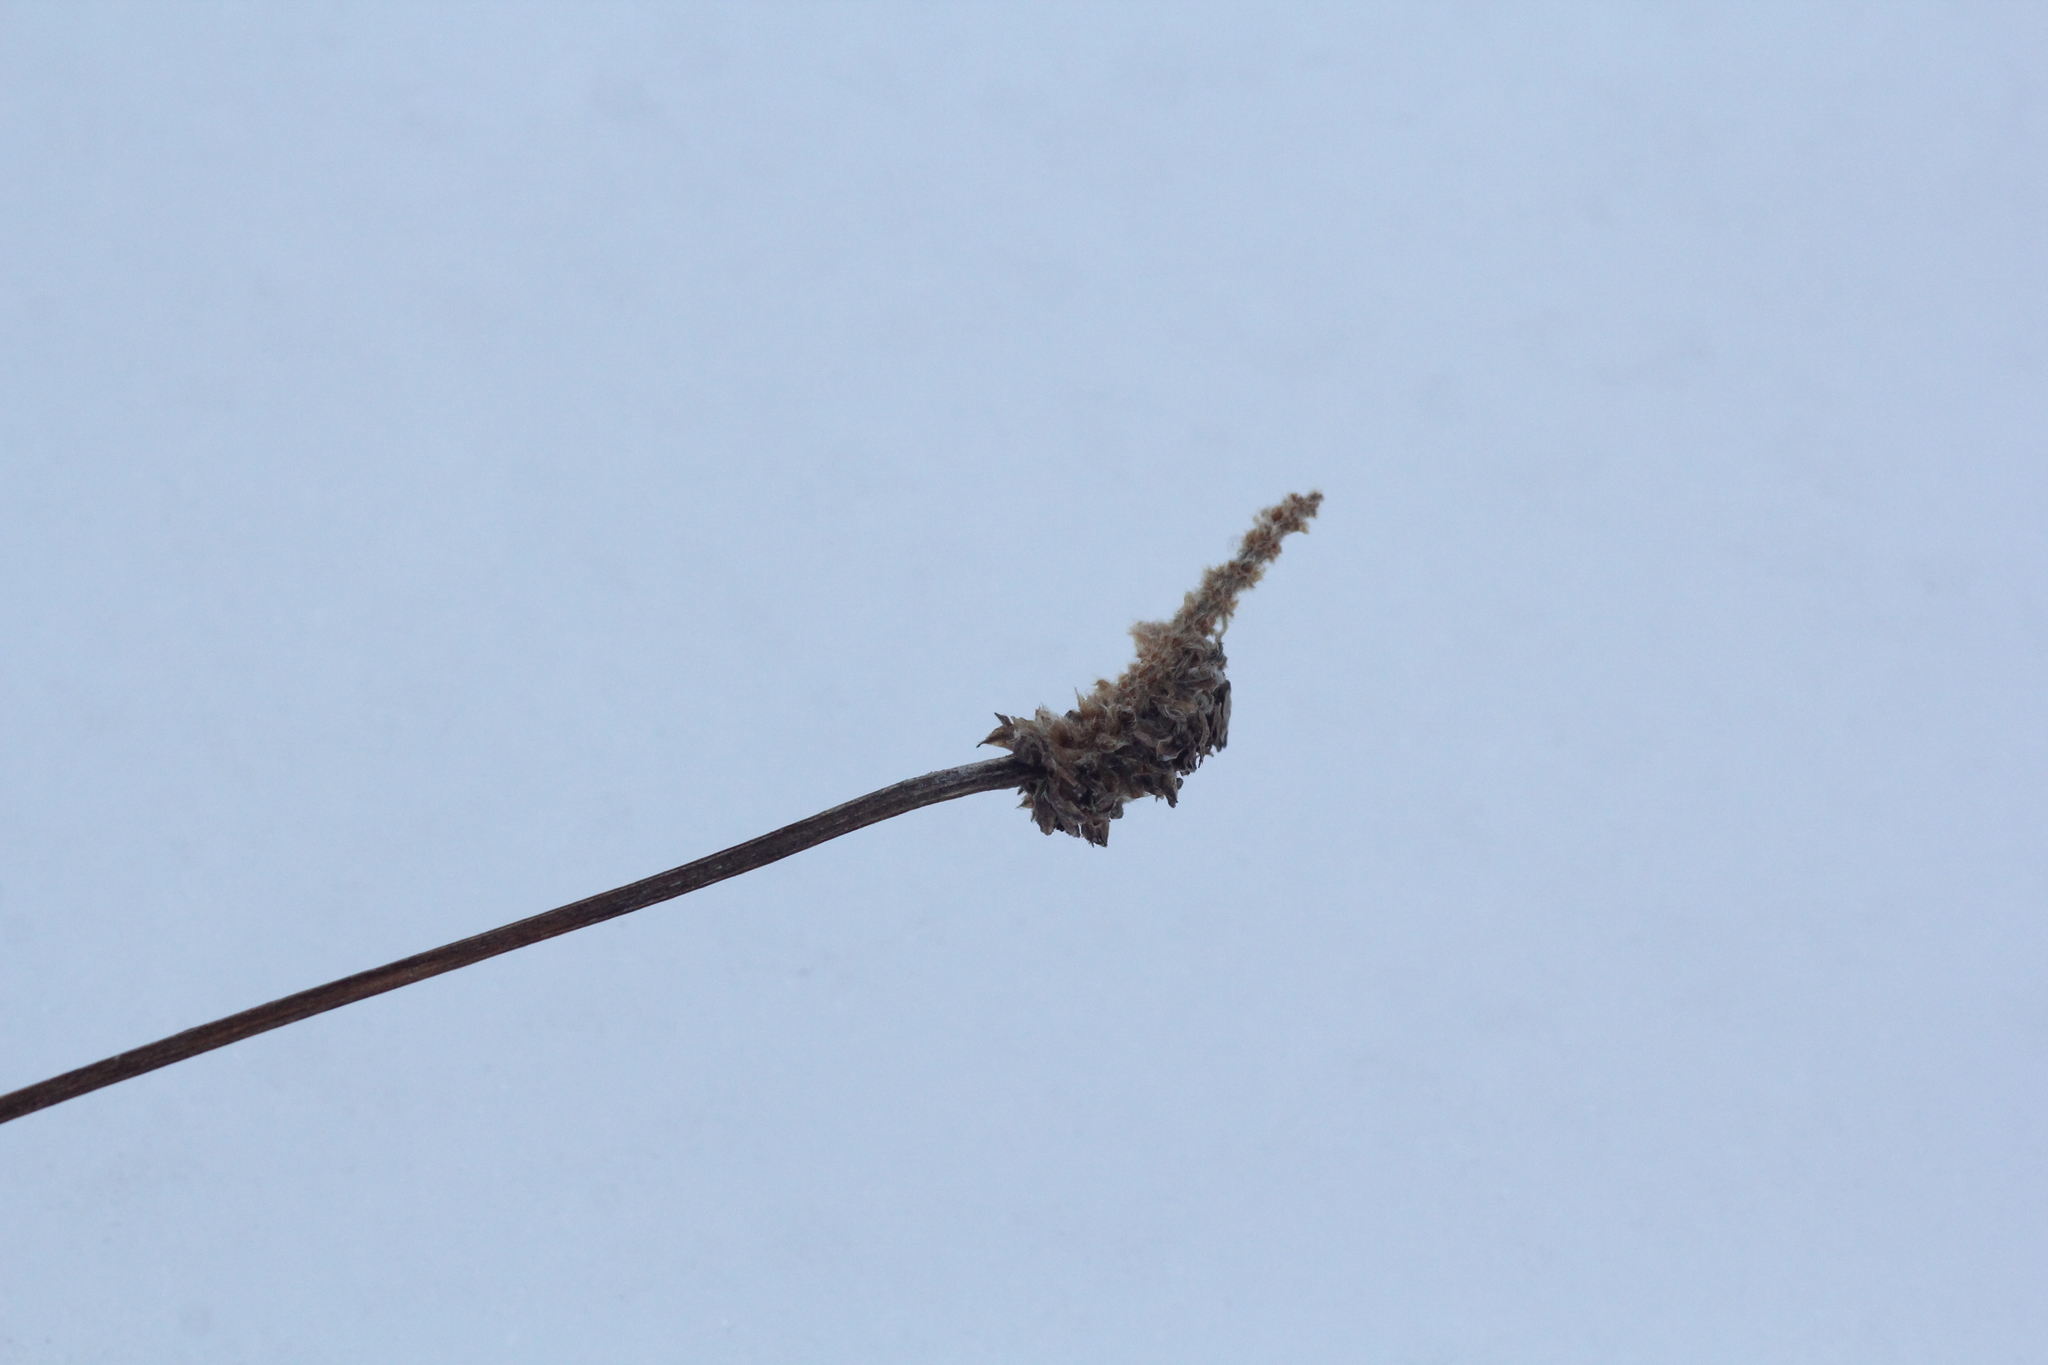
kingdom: Plantae
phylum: Tracheophyta
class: Magnoliopsida
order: Rosales
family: Rosaceae
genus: Sanguisorba
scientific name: Sanguisorba officinalis
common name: Great burnet
